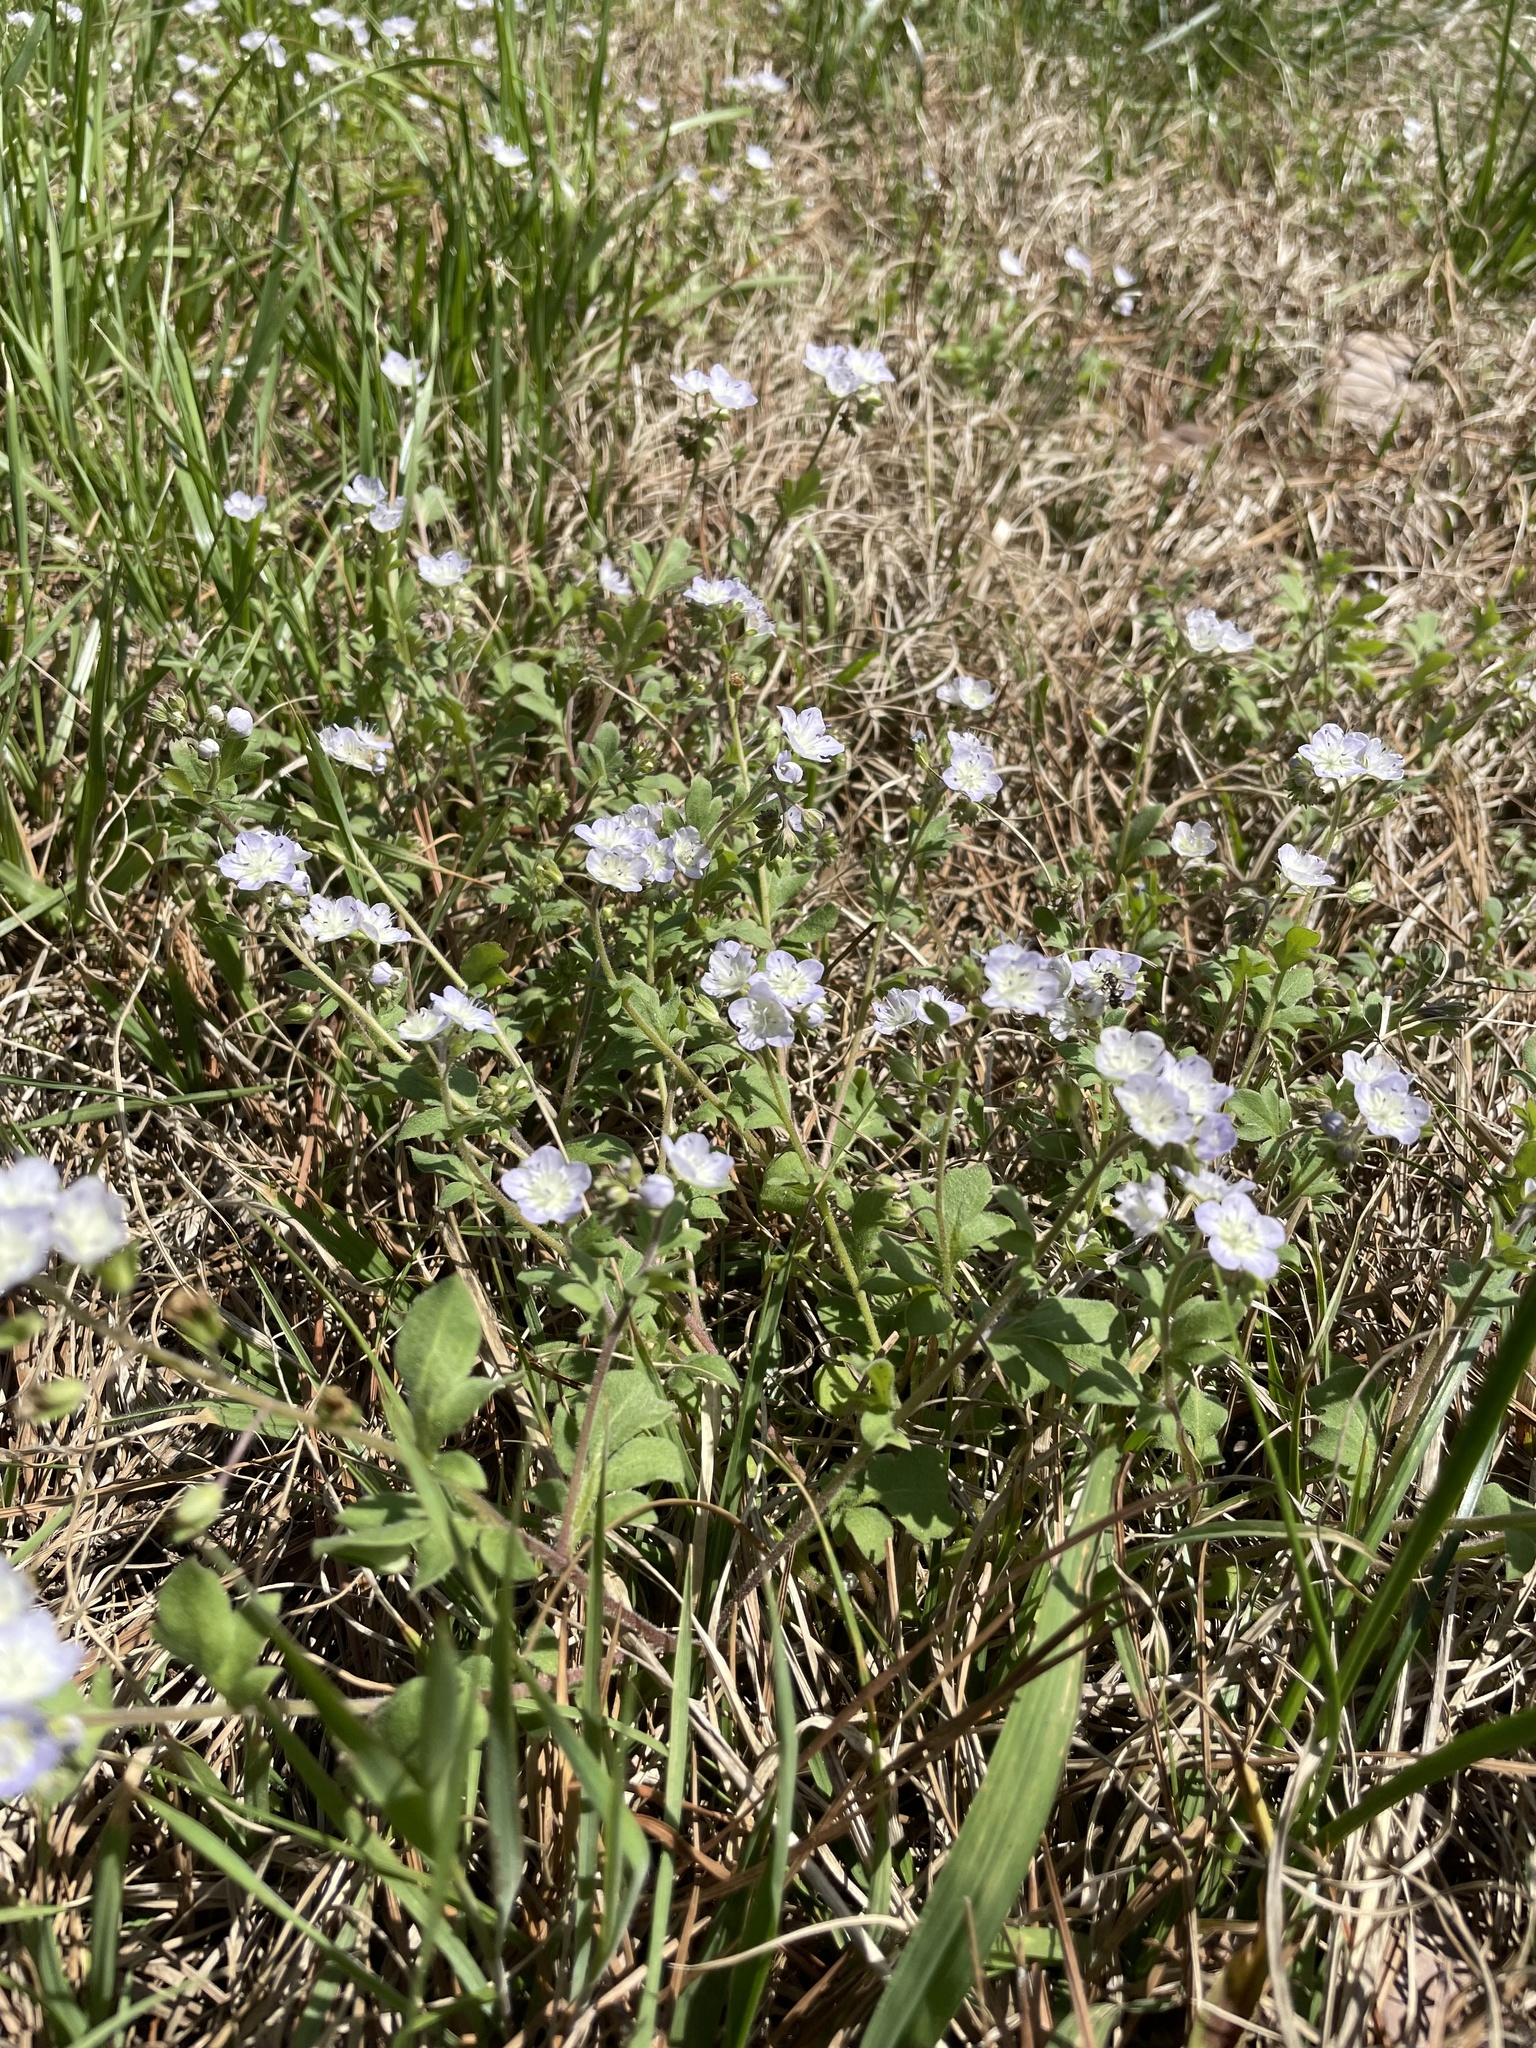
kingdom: Plantae
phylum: Tracheophyta
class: Magnoliopsida
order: Boraginales
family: Hydrophyllaceae
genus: Phacelia
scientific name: Phacelia dubia
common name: Appalachian phacelia
